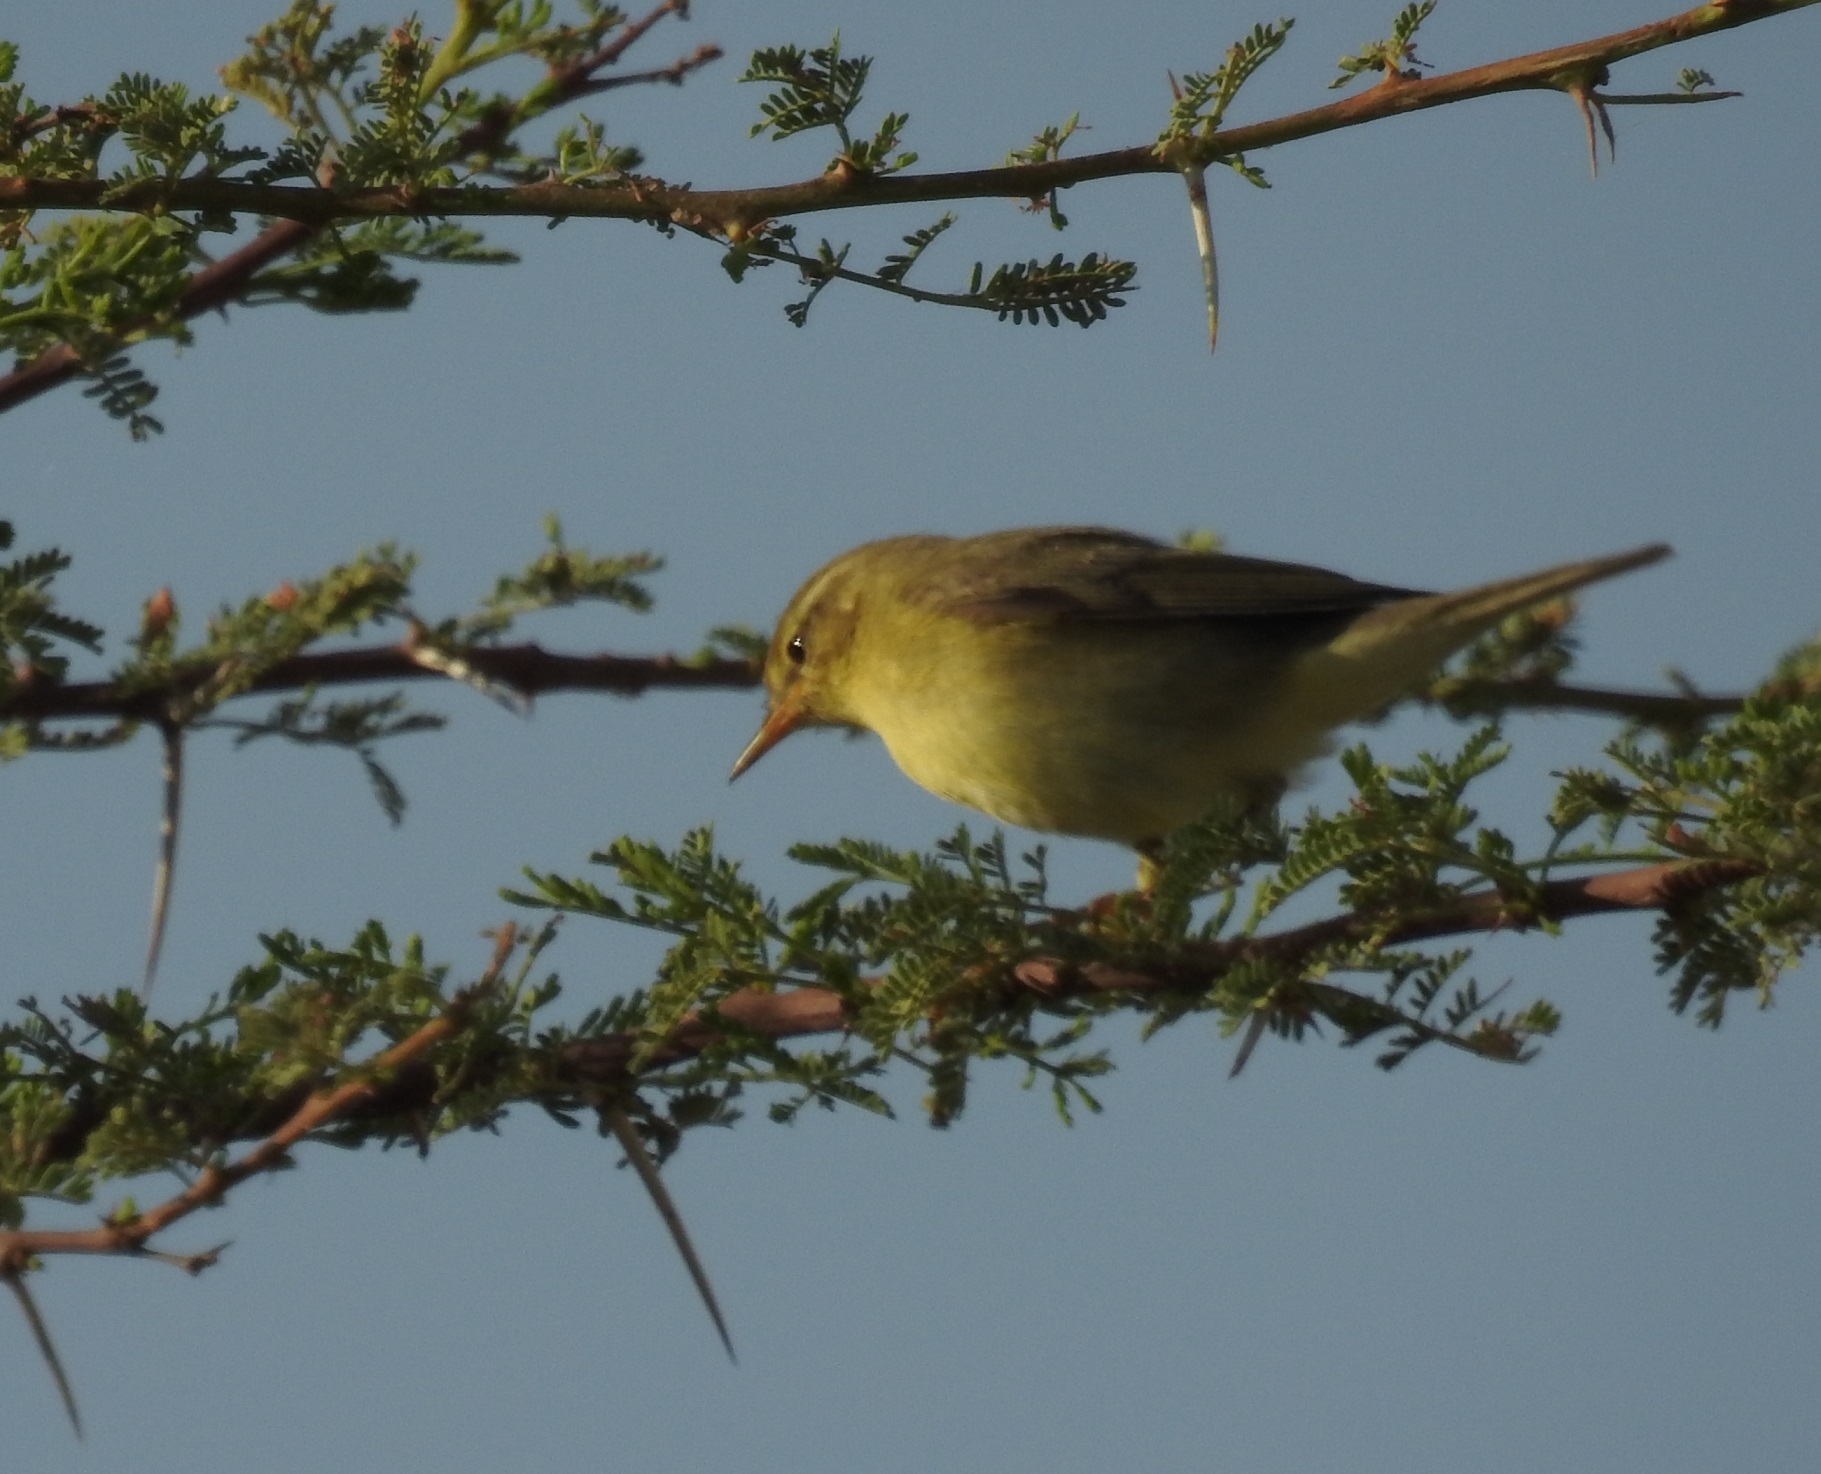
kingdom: Animalia
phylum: Chordata
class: Aves
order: Passeriformes
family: Phylloscopidae
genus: Phylloscopus
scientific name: Phylloscopus trochilus
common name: Willow warbler
